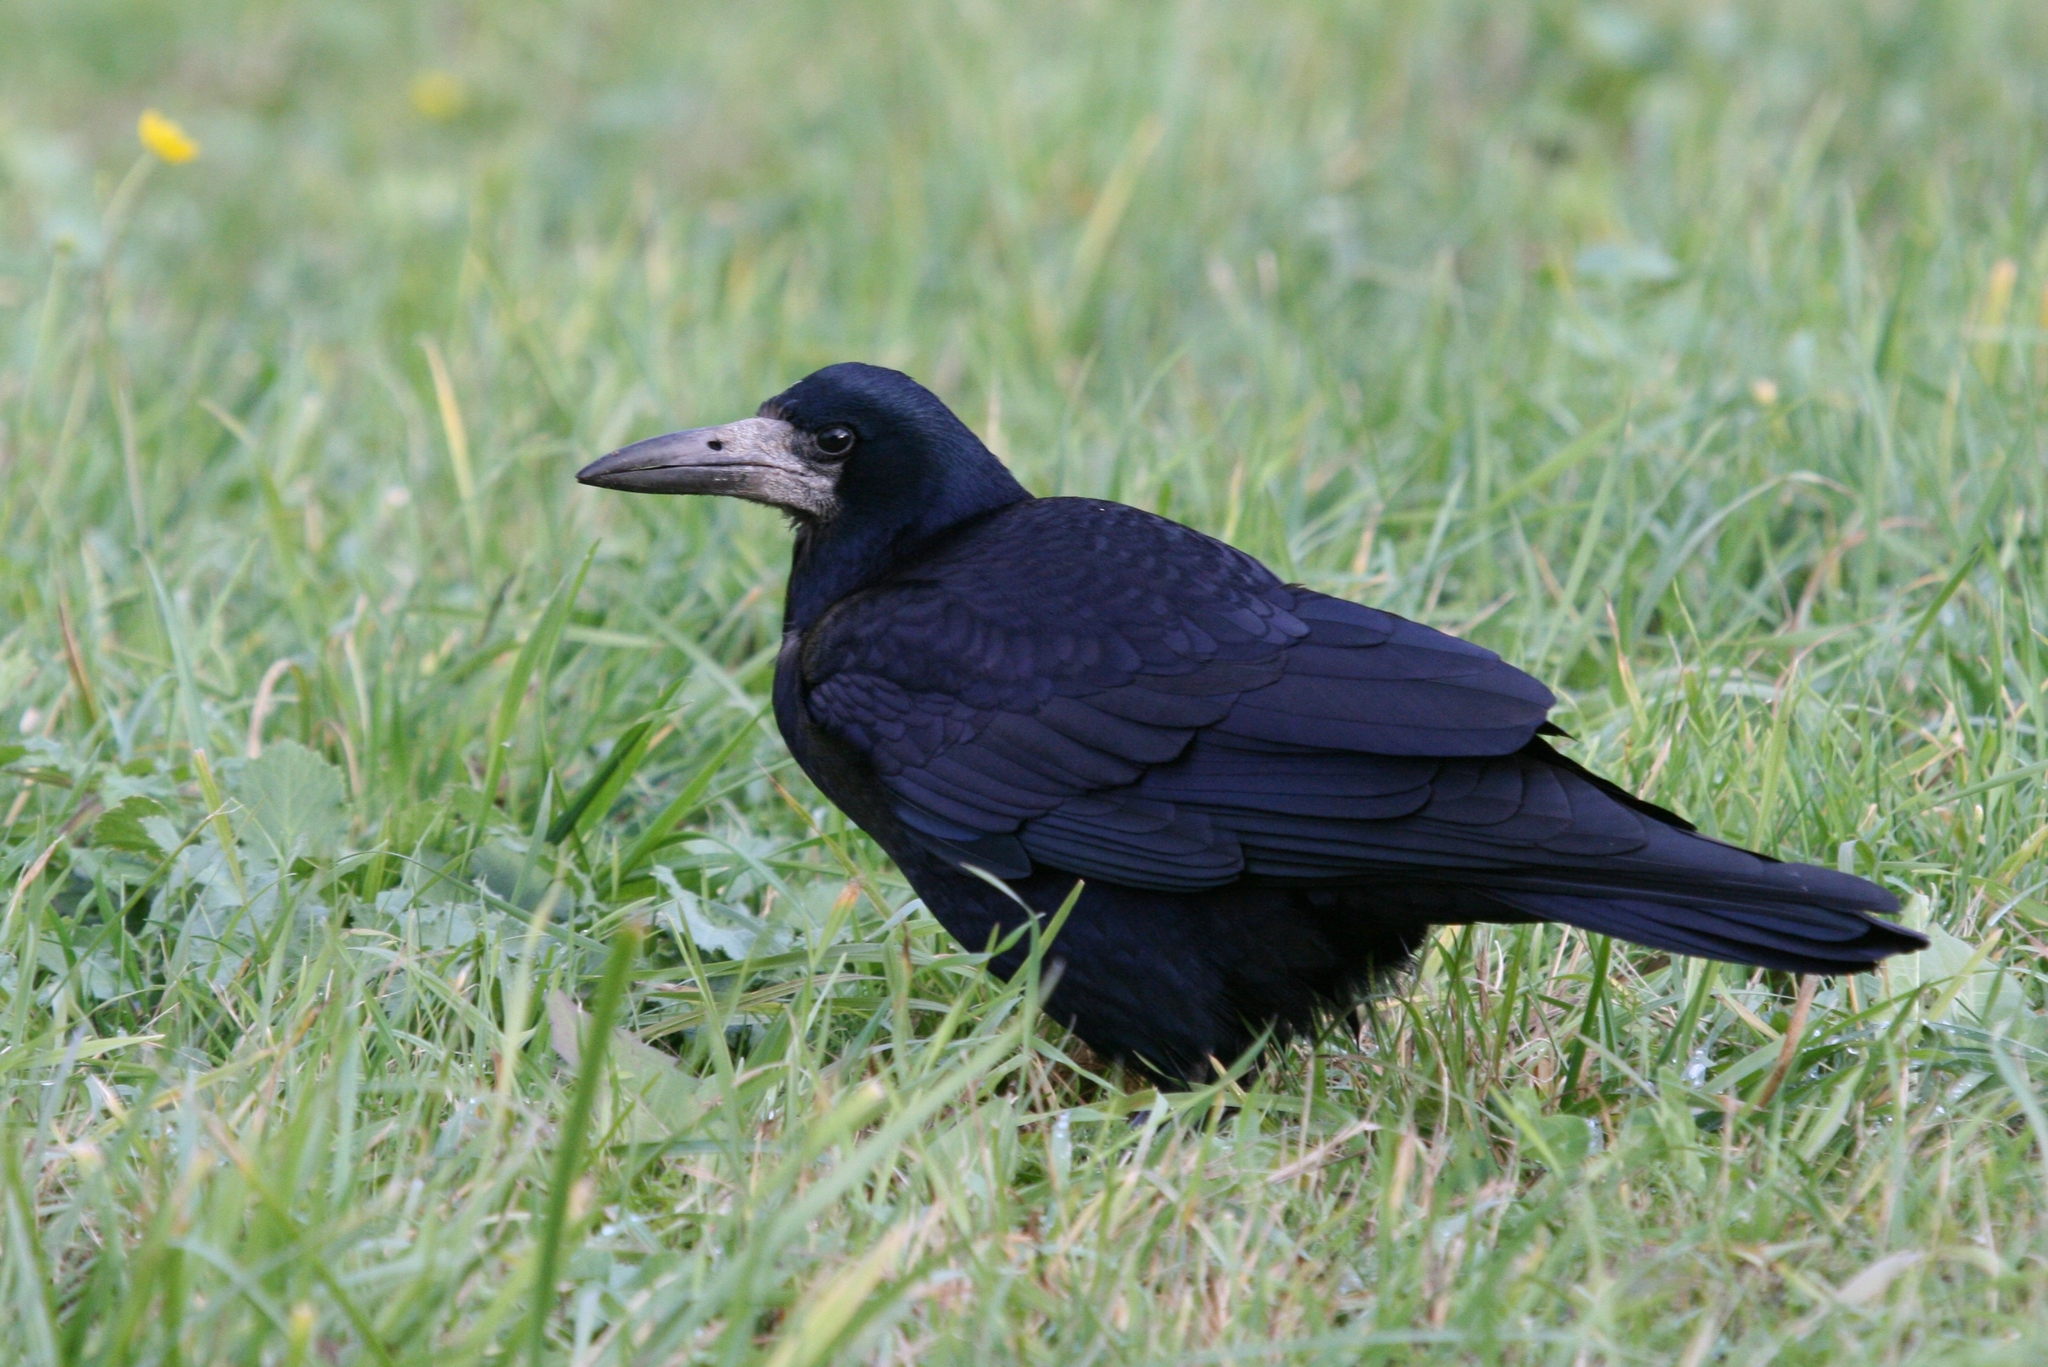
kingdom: Animalia
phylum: Chordata
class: Aves
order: Passeriformes
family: Corvidae
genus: Corvus
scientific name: Corvus frugilegus
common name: Rook
